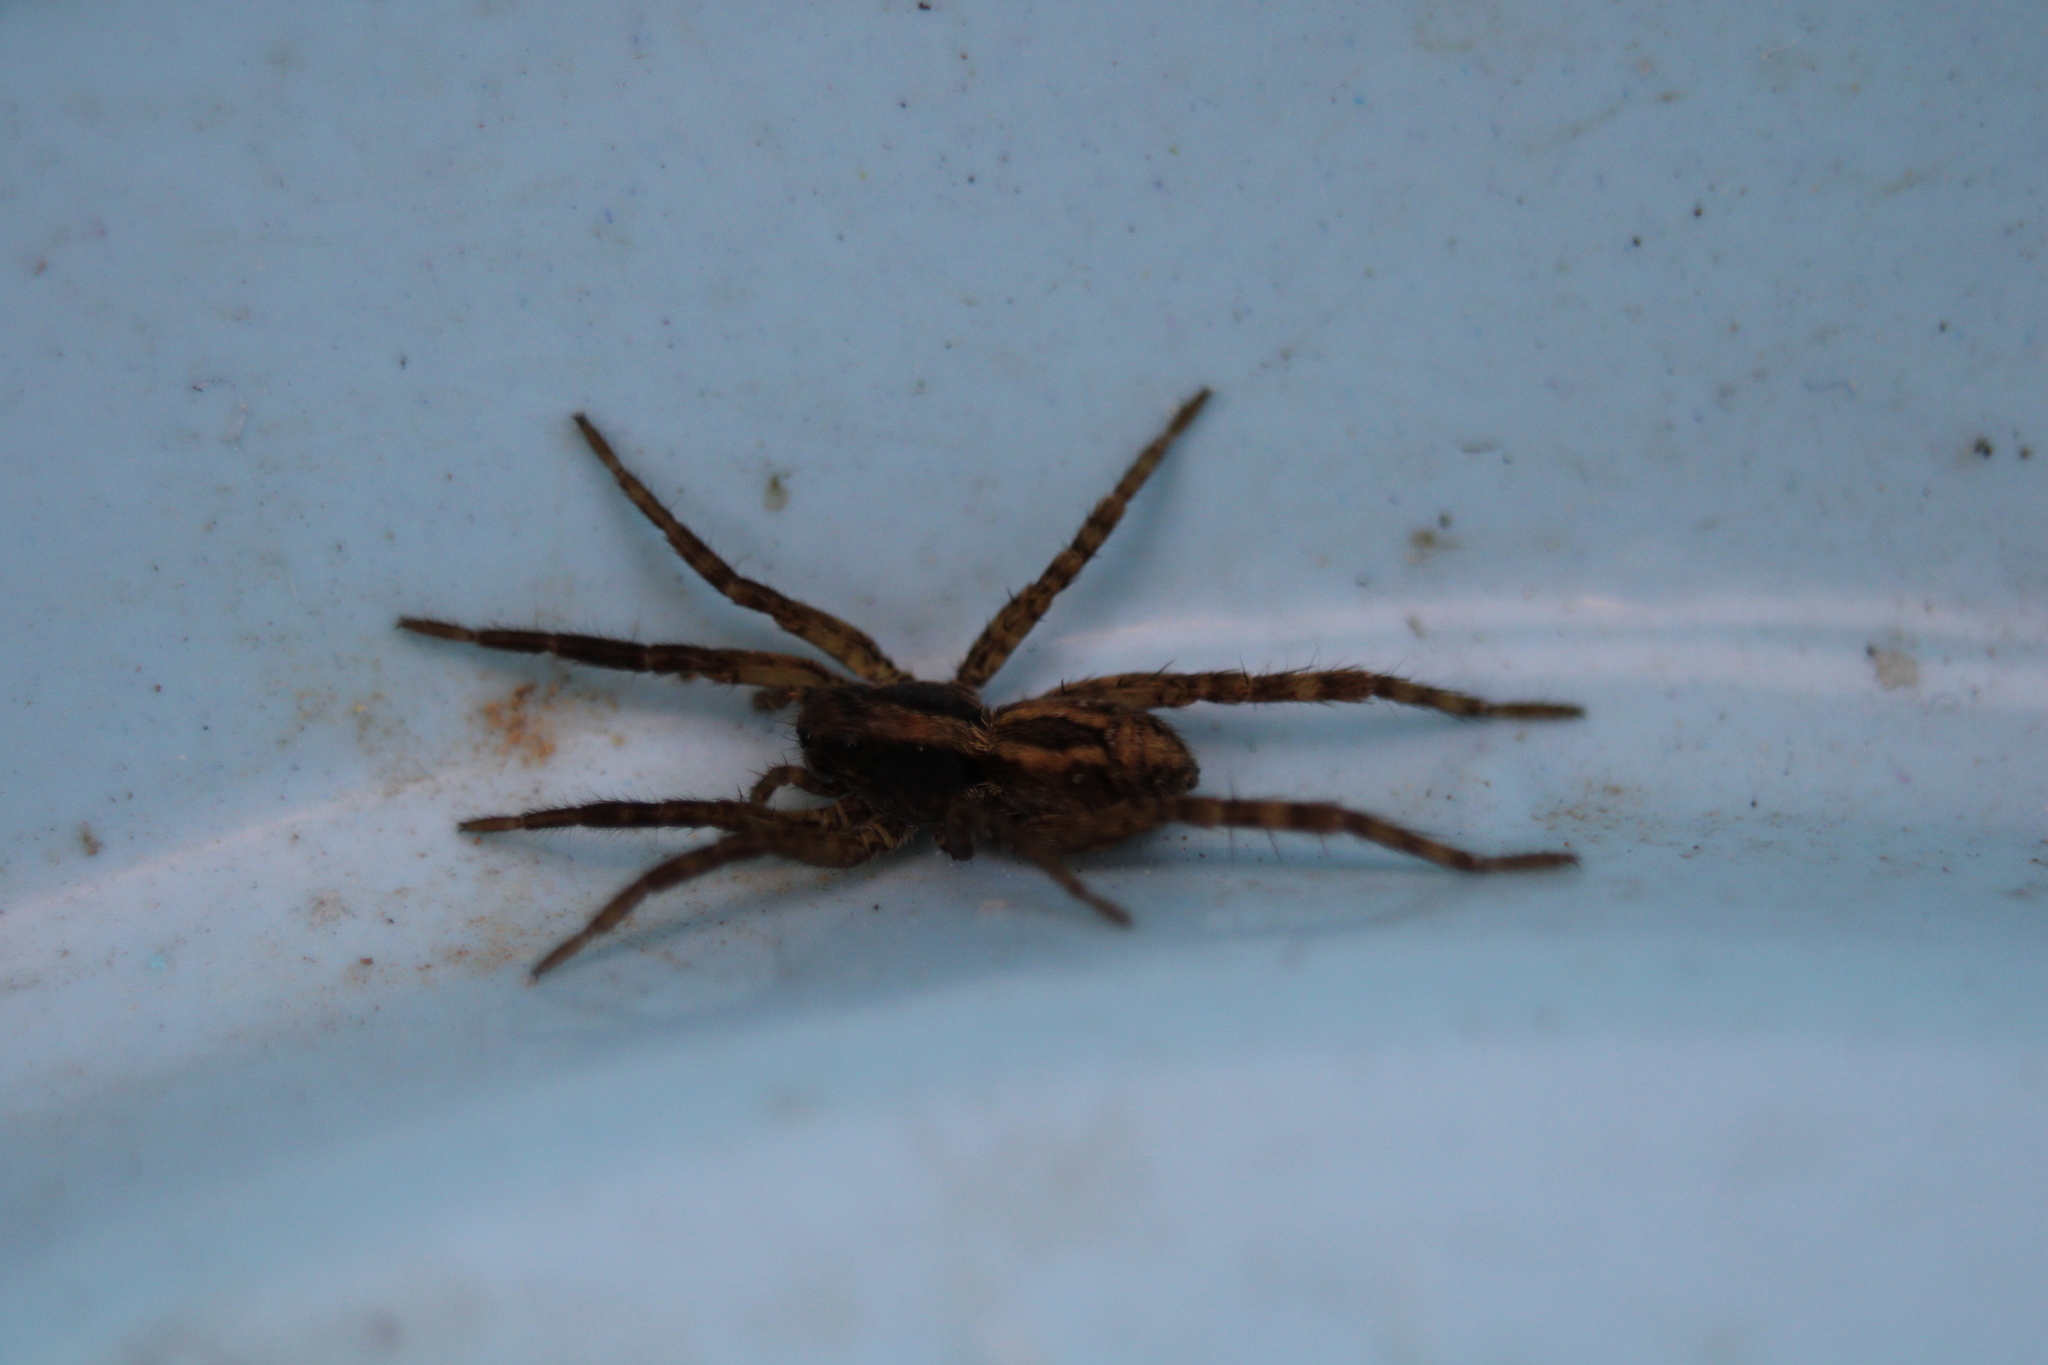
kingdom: Animalia
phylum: Arthropoda
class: Arachnida
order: Araneae
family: Lycosidae
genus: Schizocosa
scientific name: Schizocosa avida
